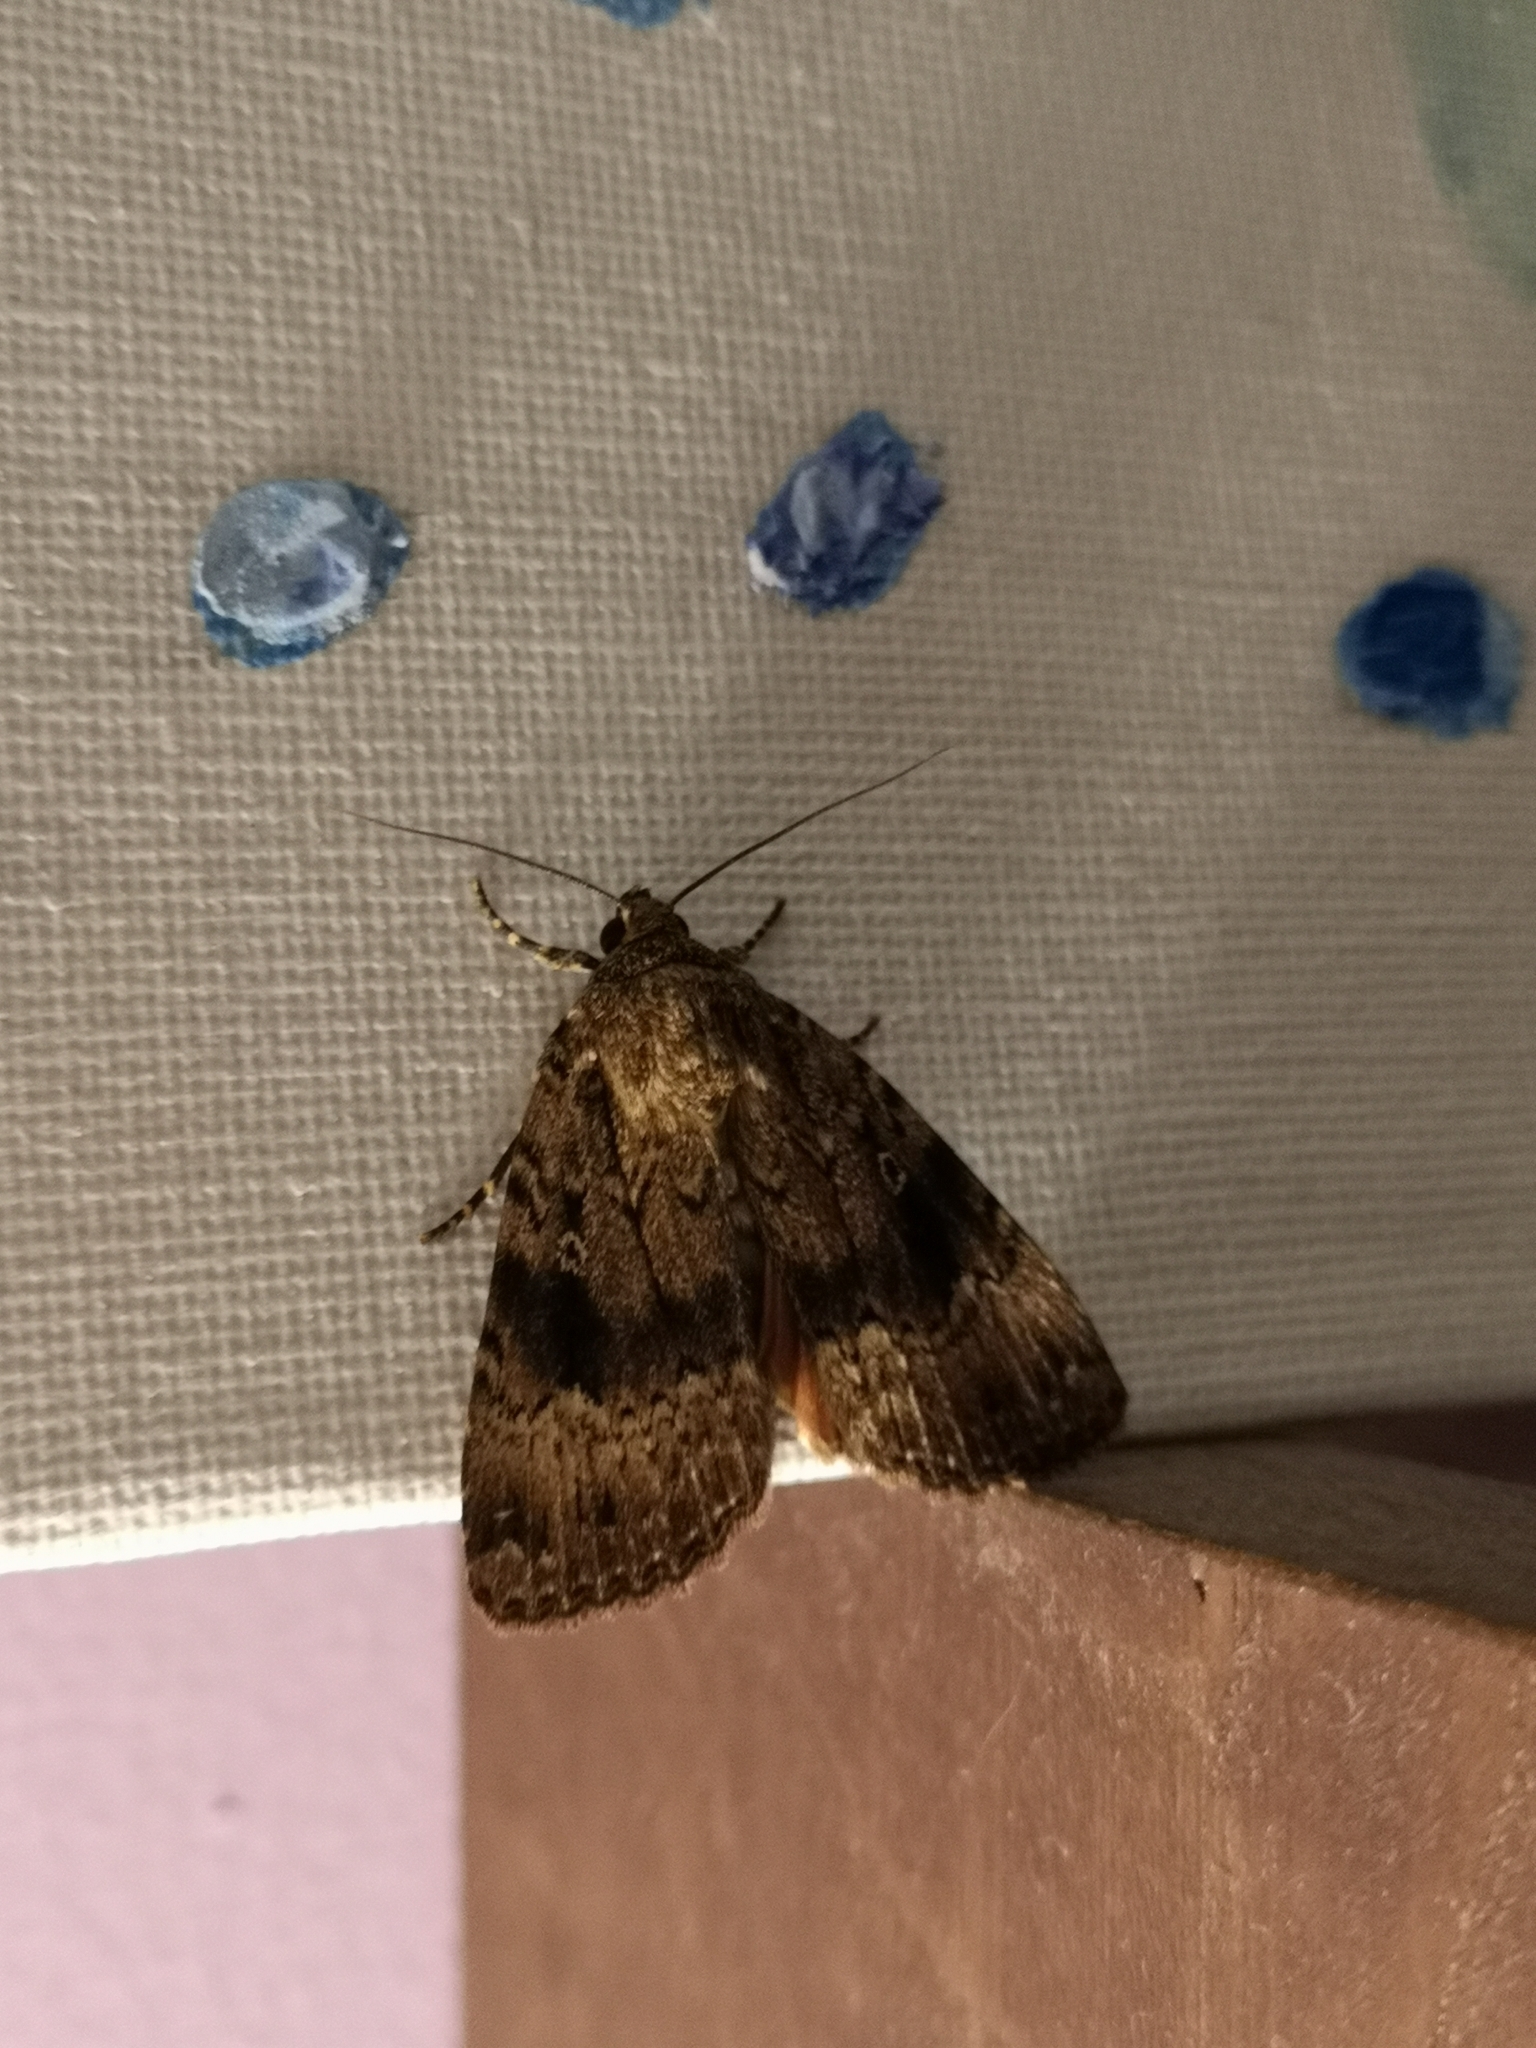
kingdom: Animalia
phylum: Arthropoda
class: Insecta
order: Lepidoptera
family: Noctuidae
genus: Amphipyra
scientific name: Amphipyra
